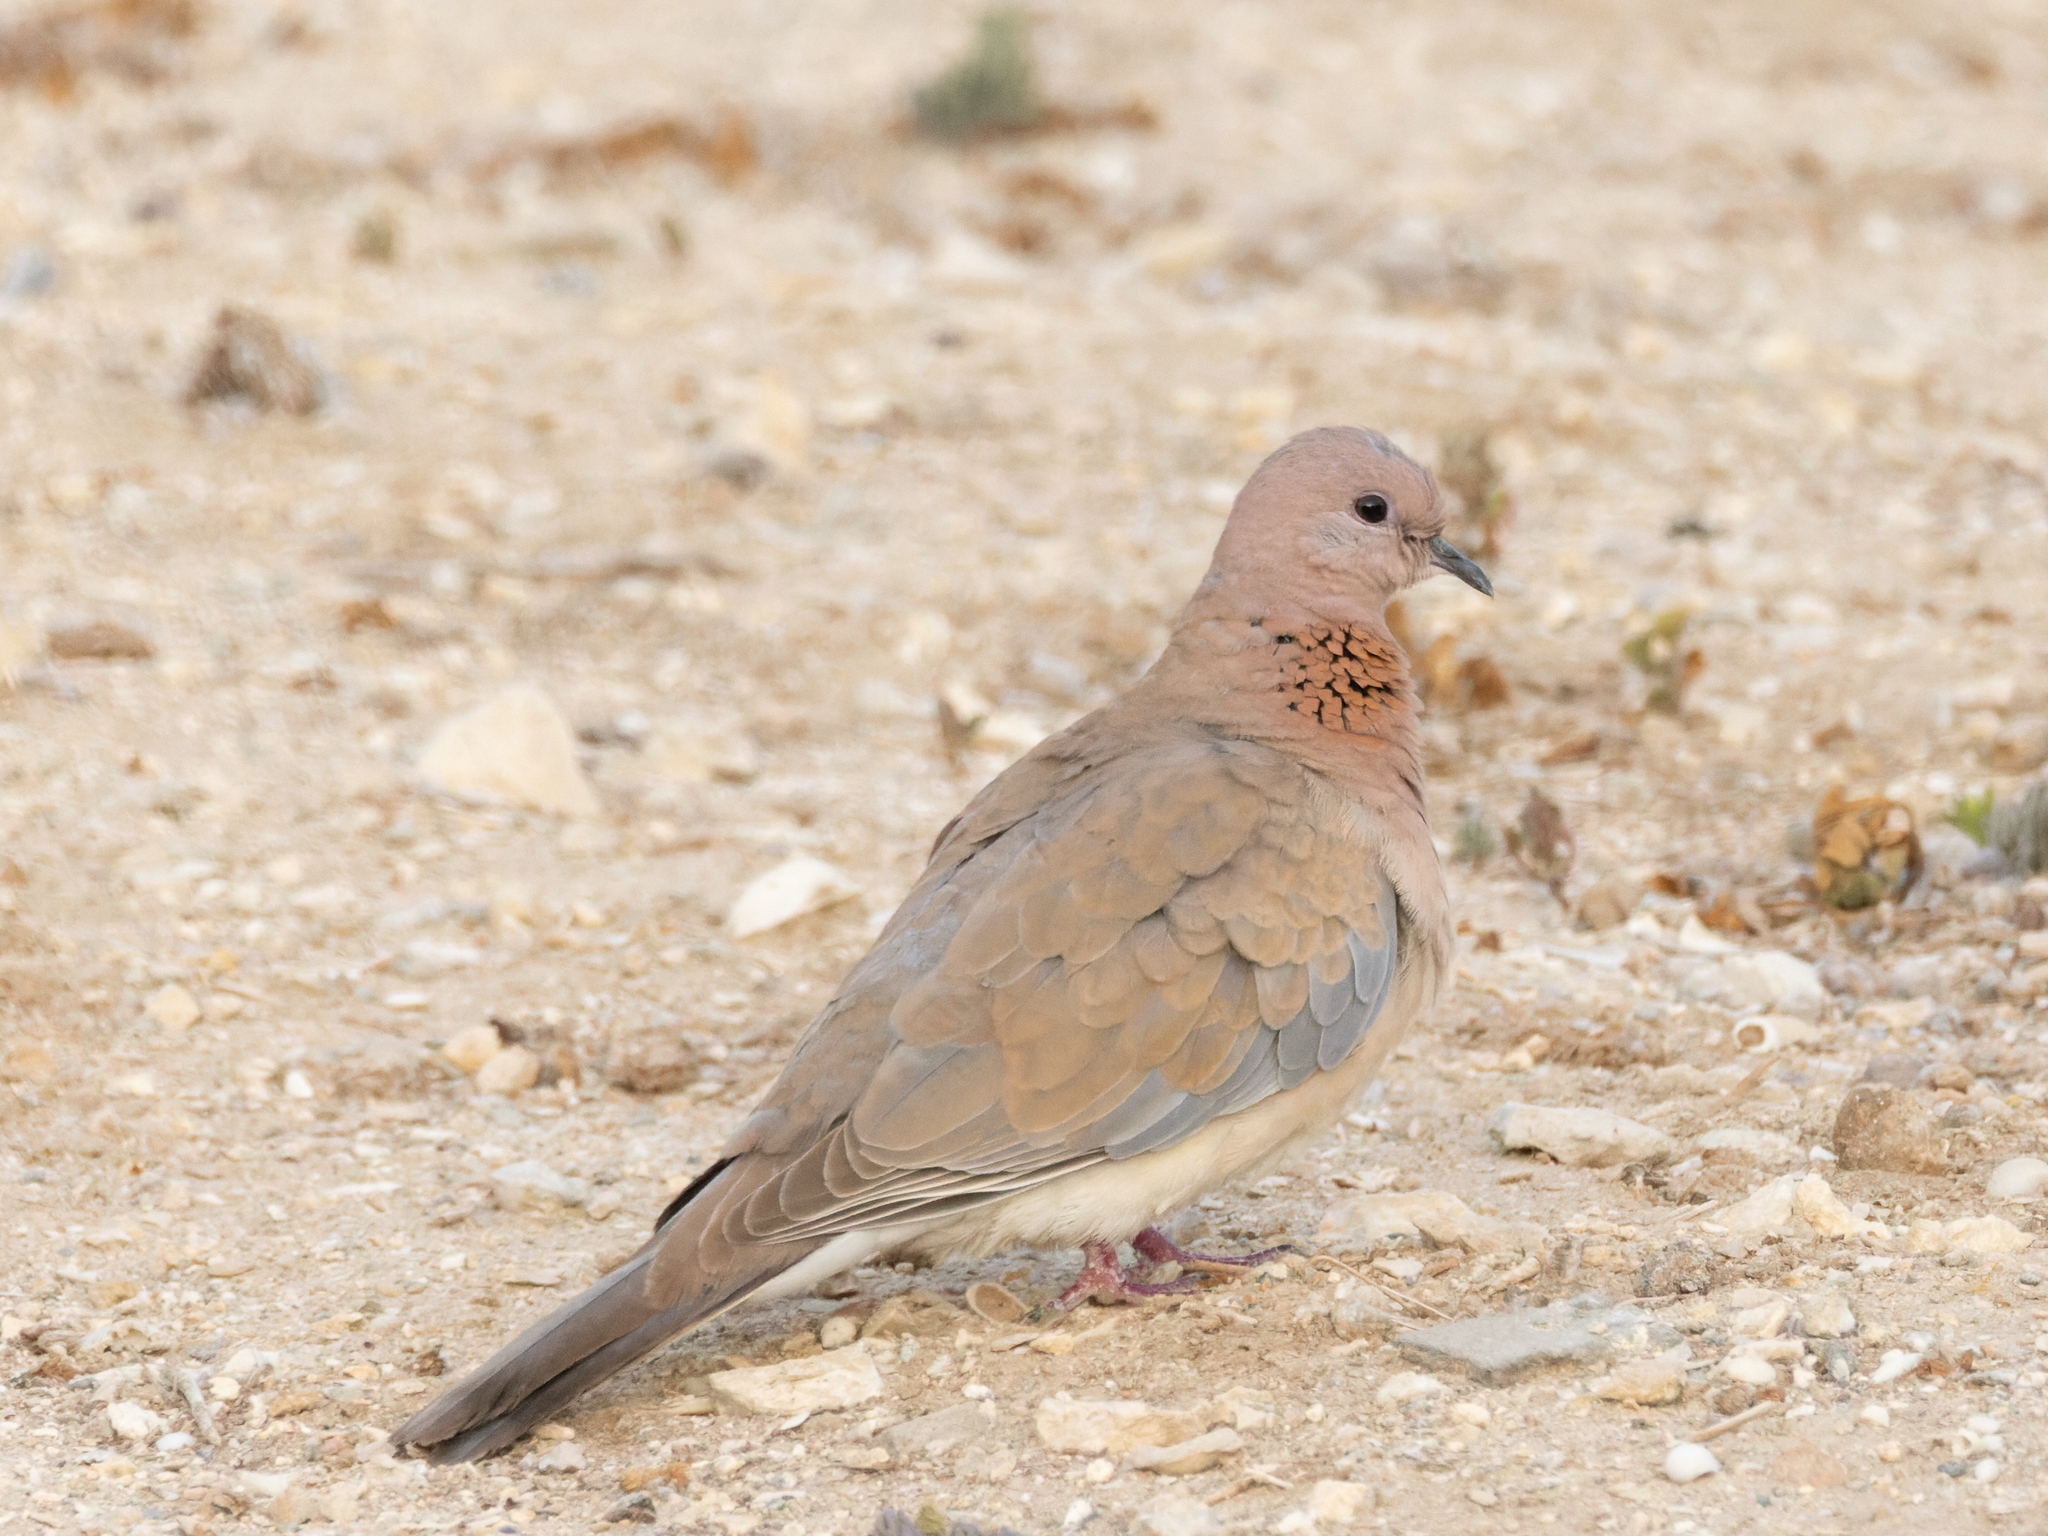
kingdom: Animalia
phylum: Chordata
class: Aves
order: Columbiformes
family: Columbidae
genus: Spilopelia
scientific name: Spilopelia senegalensis
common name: Laughing dove
